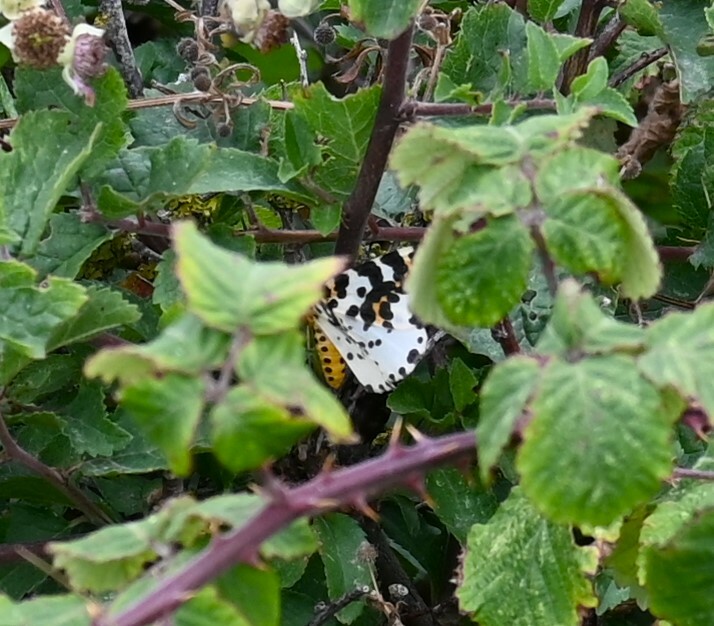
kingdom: Animalia
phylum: Arthropoda
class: Insecta
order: Lepidoptera
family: Geometridae
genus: Abraxas
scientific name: Abraxas grossulariata
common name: Magpie
